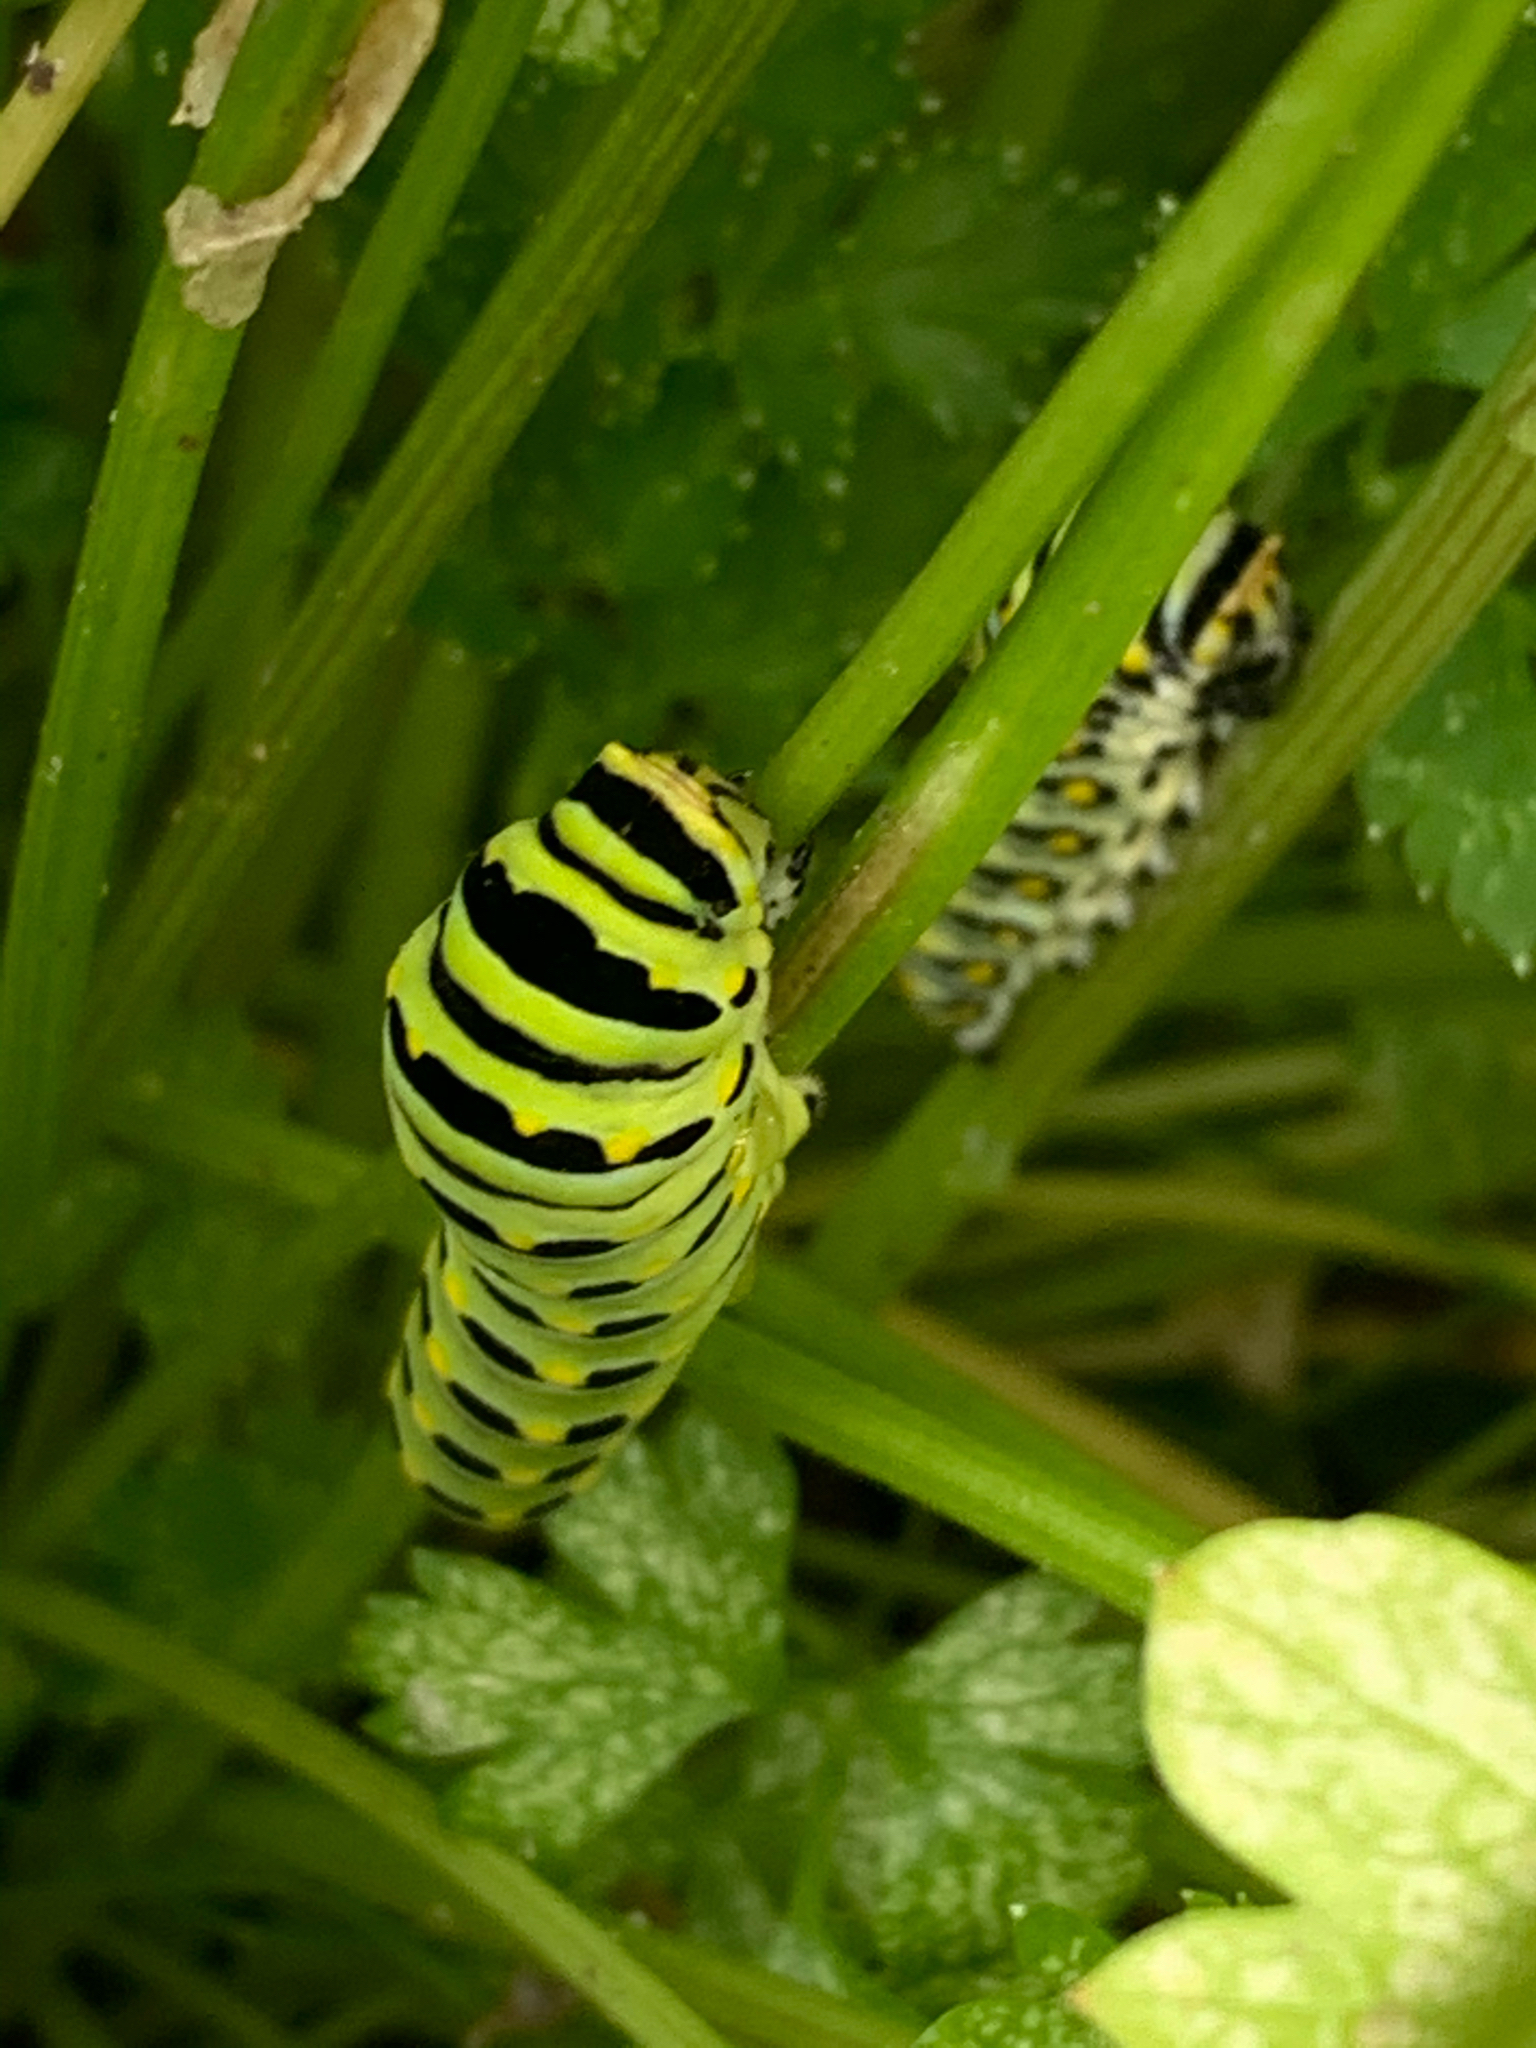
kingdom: Animalia
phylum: Arthropoda
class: Insecta
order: Lepidoptera
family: Papilionidae
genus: Papilio
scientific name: Papilio polyxenes
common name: Black swallowtail
